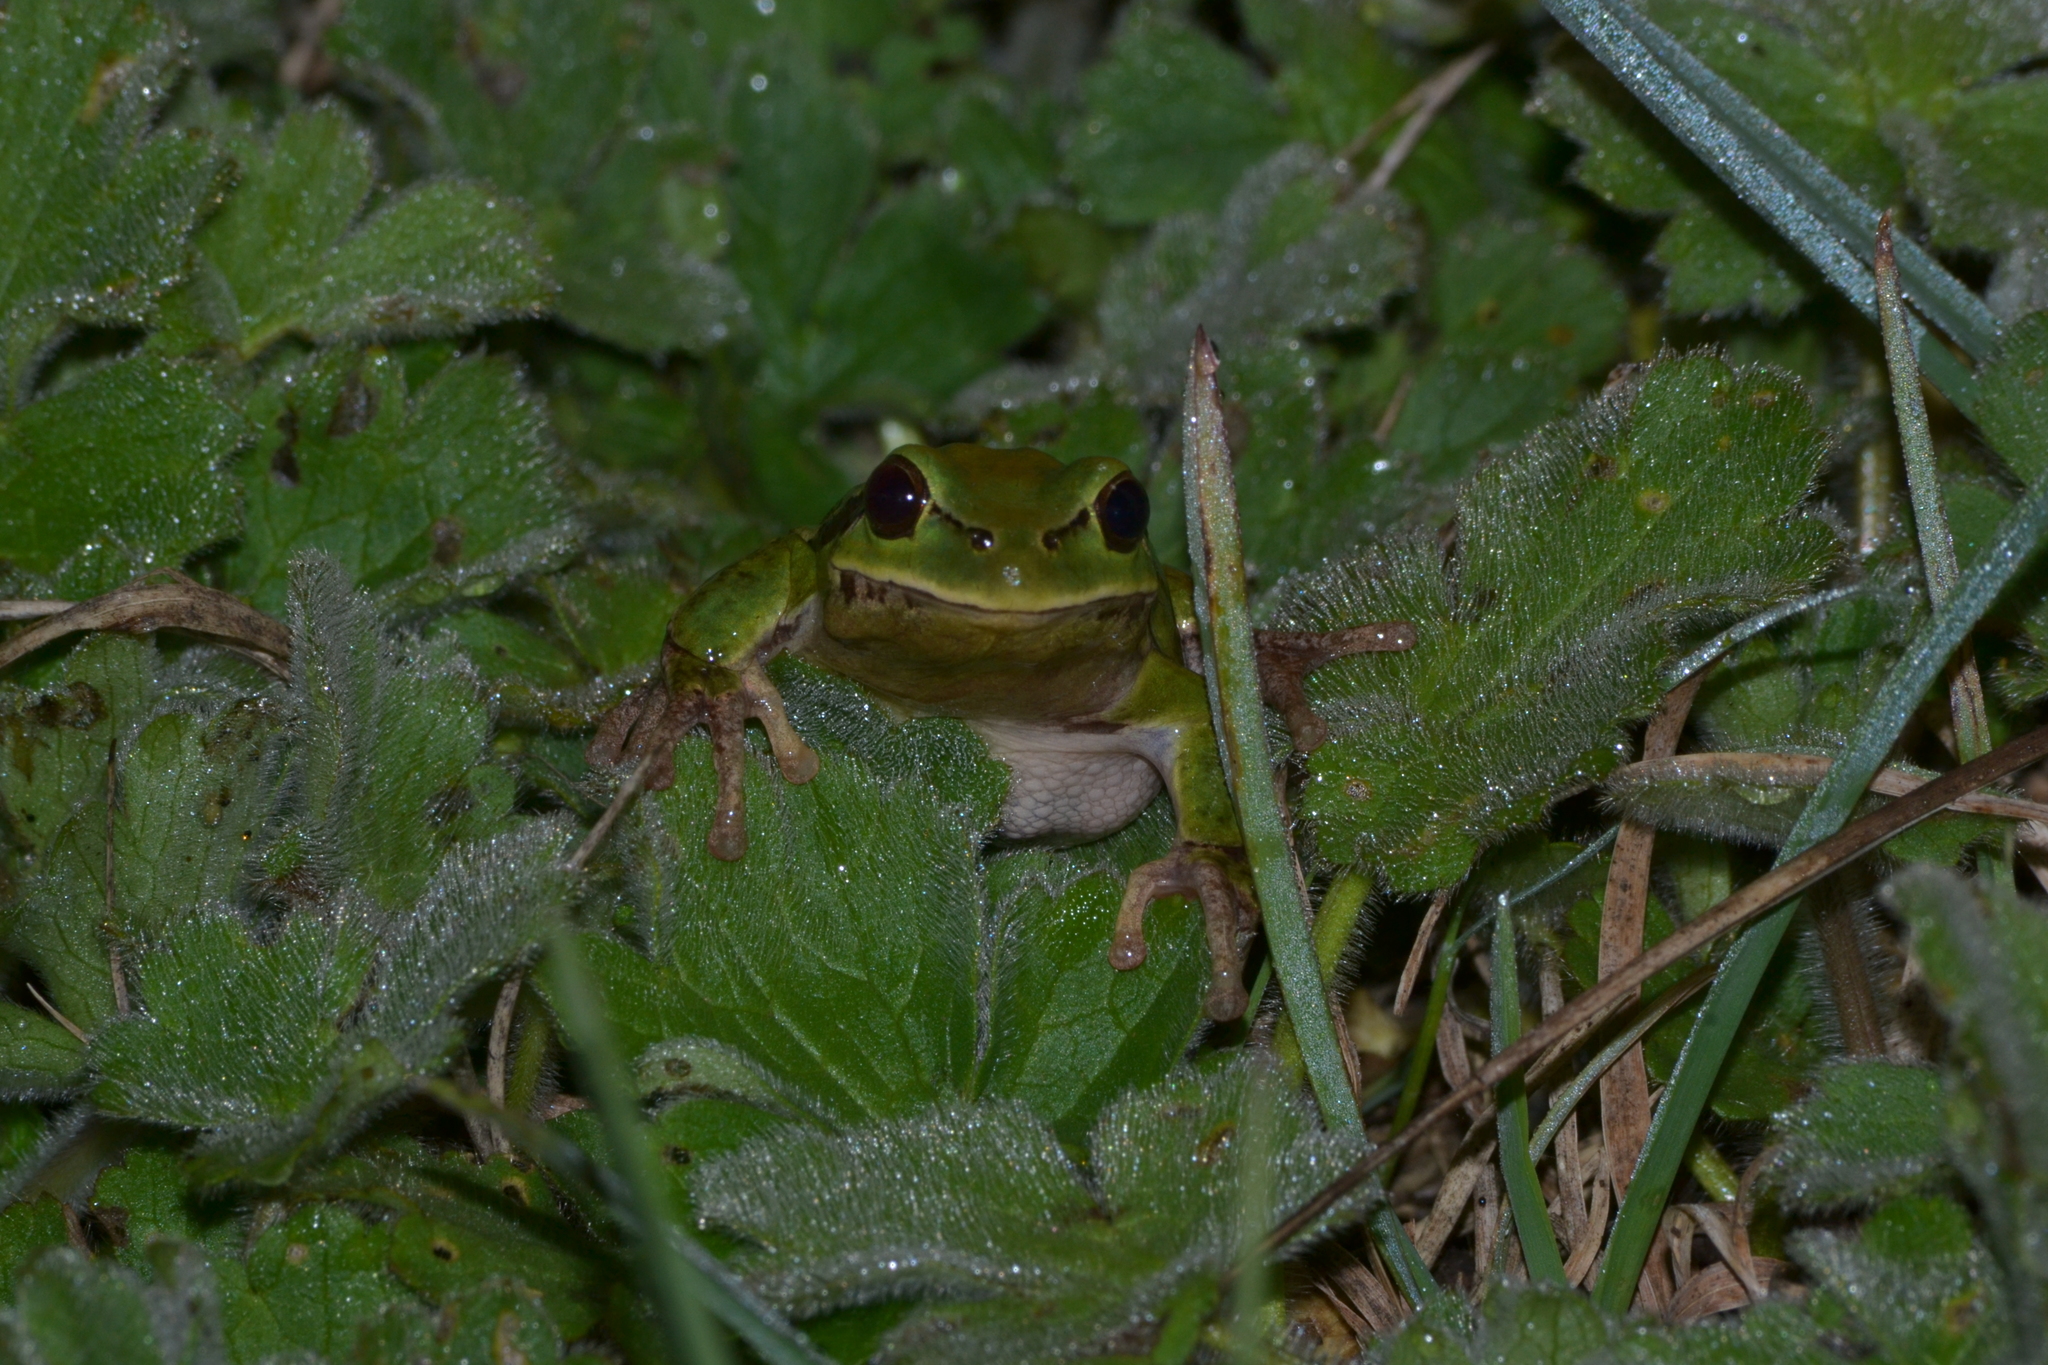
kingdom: Animalia
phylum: Chordata
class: Amphibia
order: Anura
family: Hylidae
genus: Hyla
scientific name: Hyla intermedia
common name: Italian tree frog
